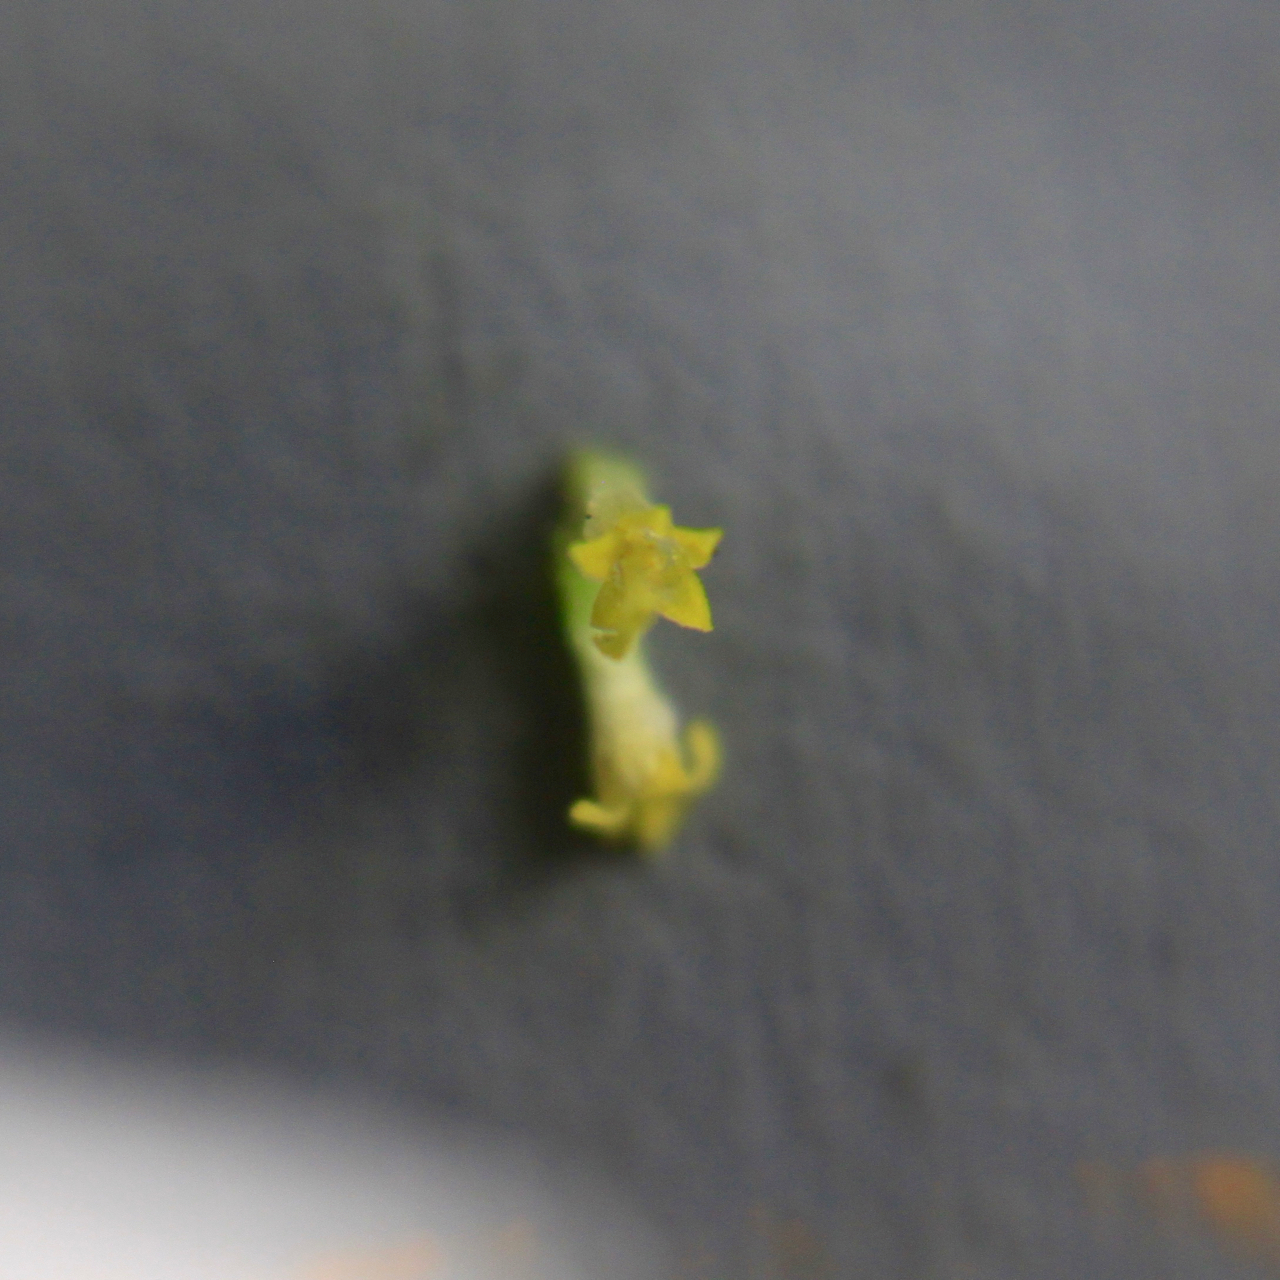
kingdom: Plantae
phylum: Tracheophyta
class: Magnoliopsida
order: Asterales
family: Asteraceae
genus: Anthemis
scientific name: Anthemis arvensis
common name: Corn chamomile
